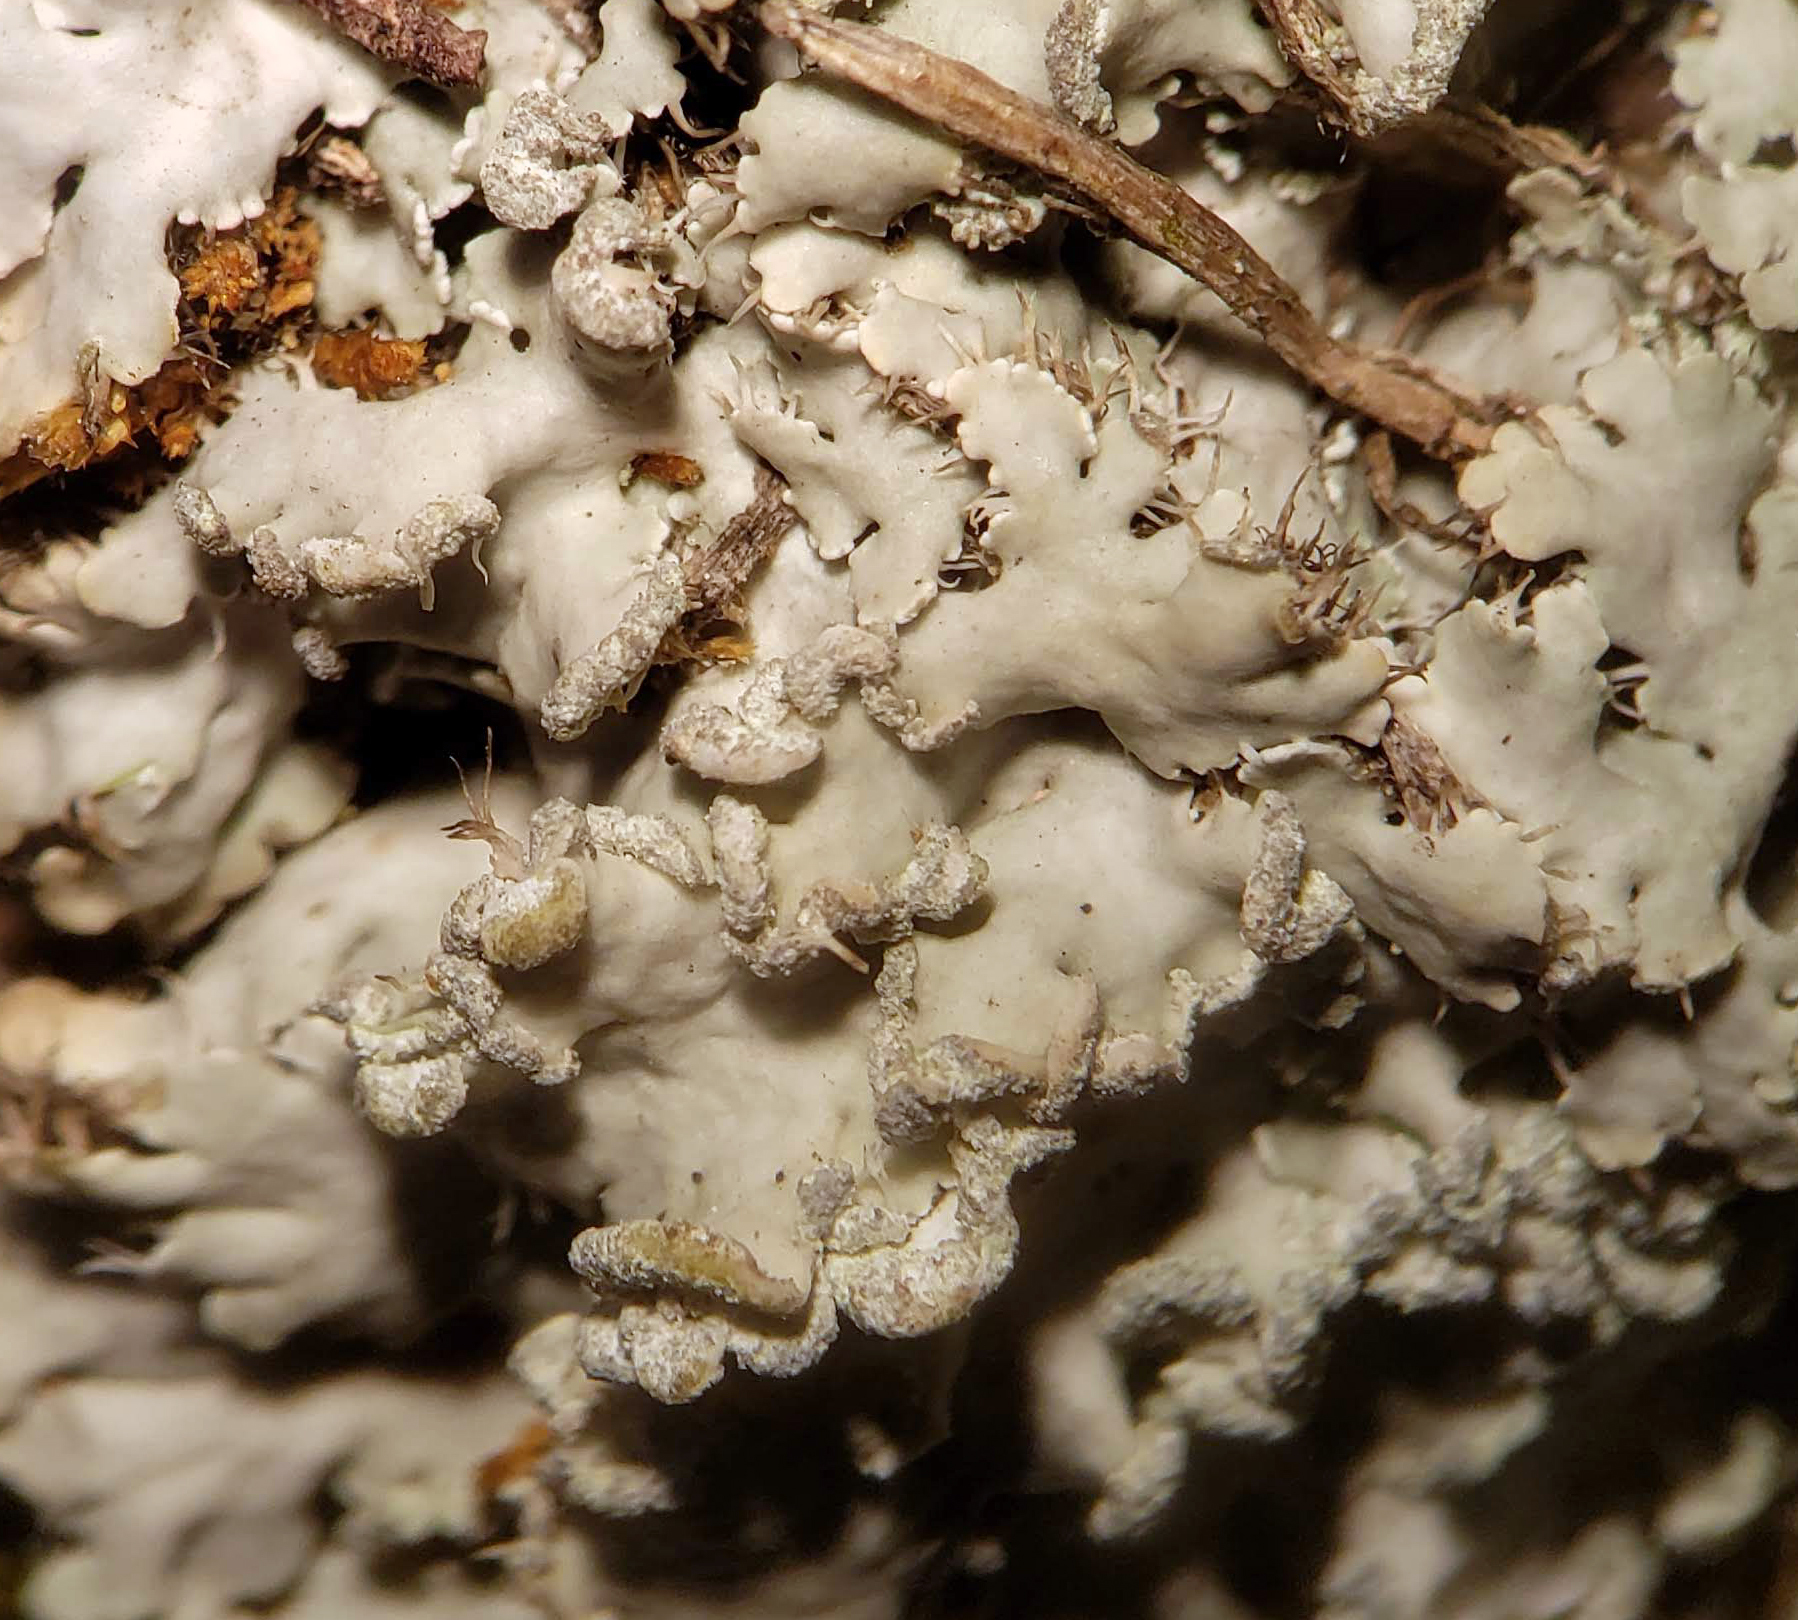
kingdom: Fungi
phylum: Ascomycota
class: Lecanoromycetes
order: Caliciales
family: Physciaceae
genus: Heterodermia
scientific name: Heterodermia speciosa
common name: Powdered fringe lichen
